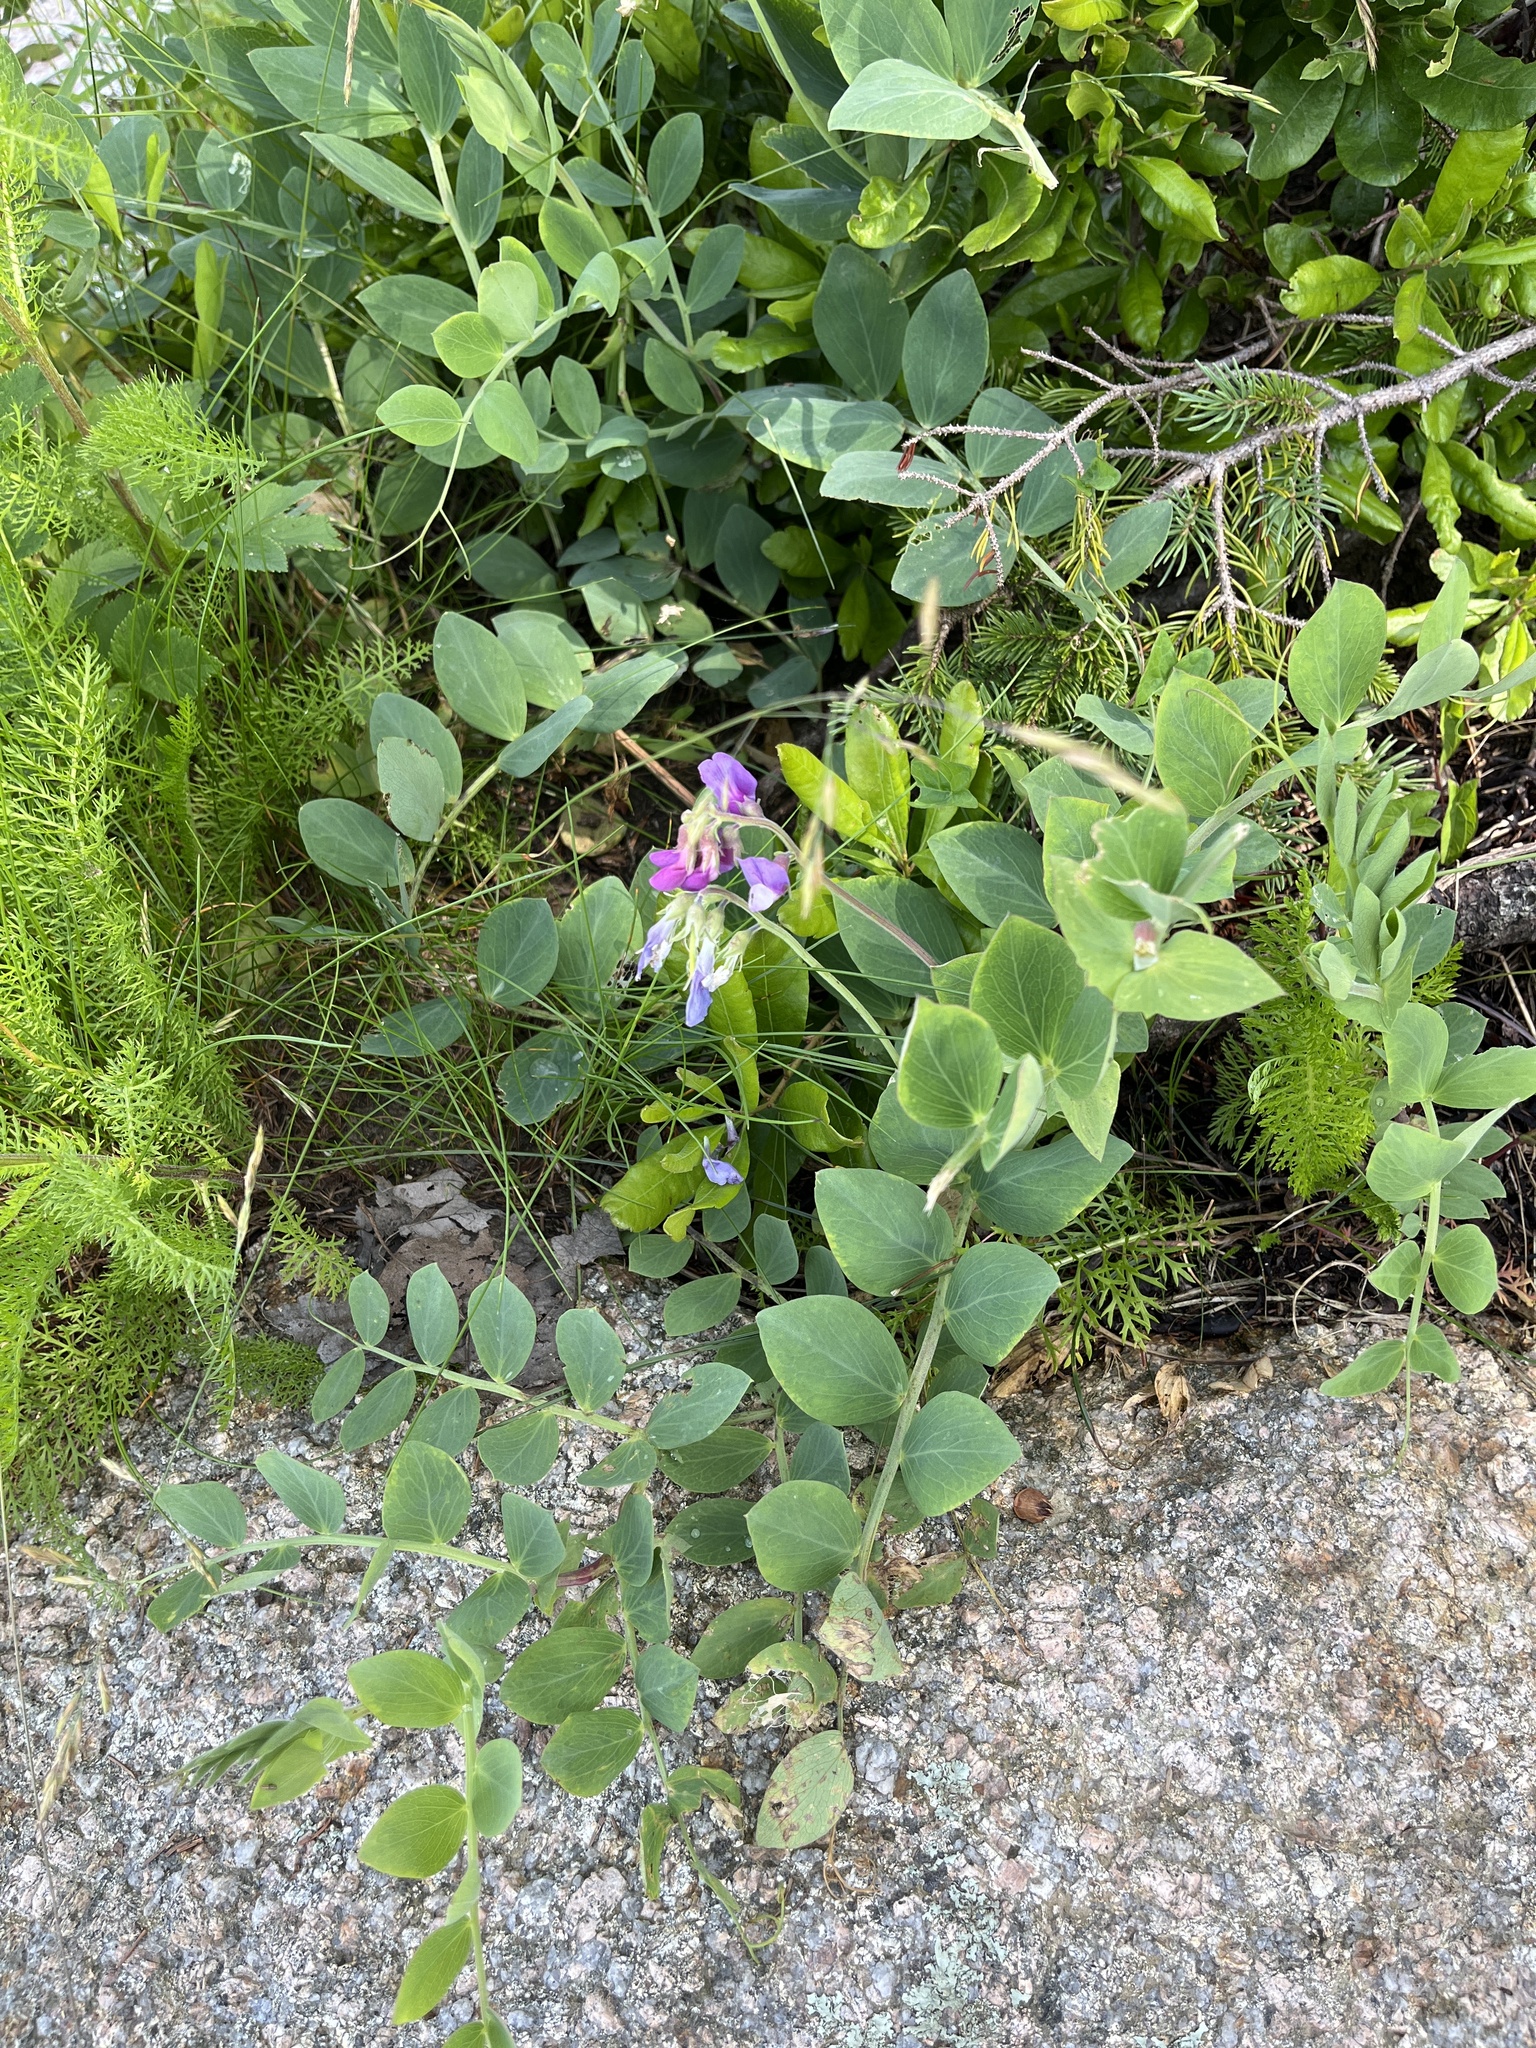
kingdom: Plantae
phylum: Tracheophyta
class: Magnoliopsida
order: Fabales
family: Fabaceae
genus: Lathyrus
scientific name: Lathyrus japonicus
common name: Sea pea
